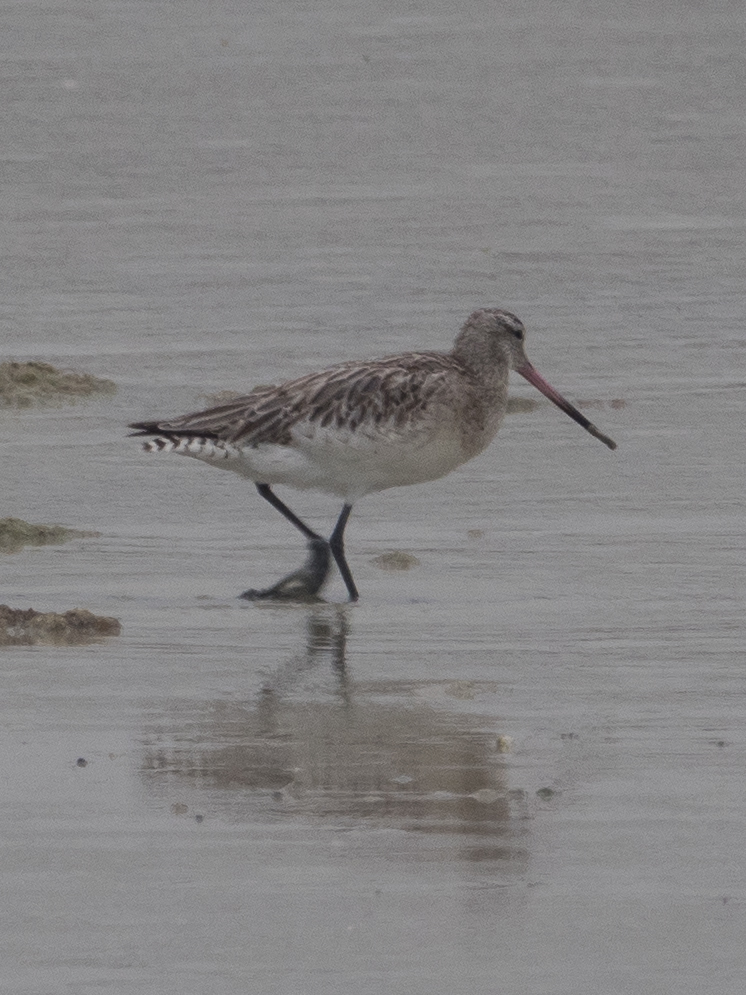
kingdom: Animalia
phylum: Chordata
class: Aves
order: Charadriiformes
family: Scolopacidae
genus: Limosa
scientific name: Limosa lapponica
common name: Bar-tailed godwit
